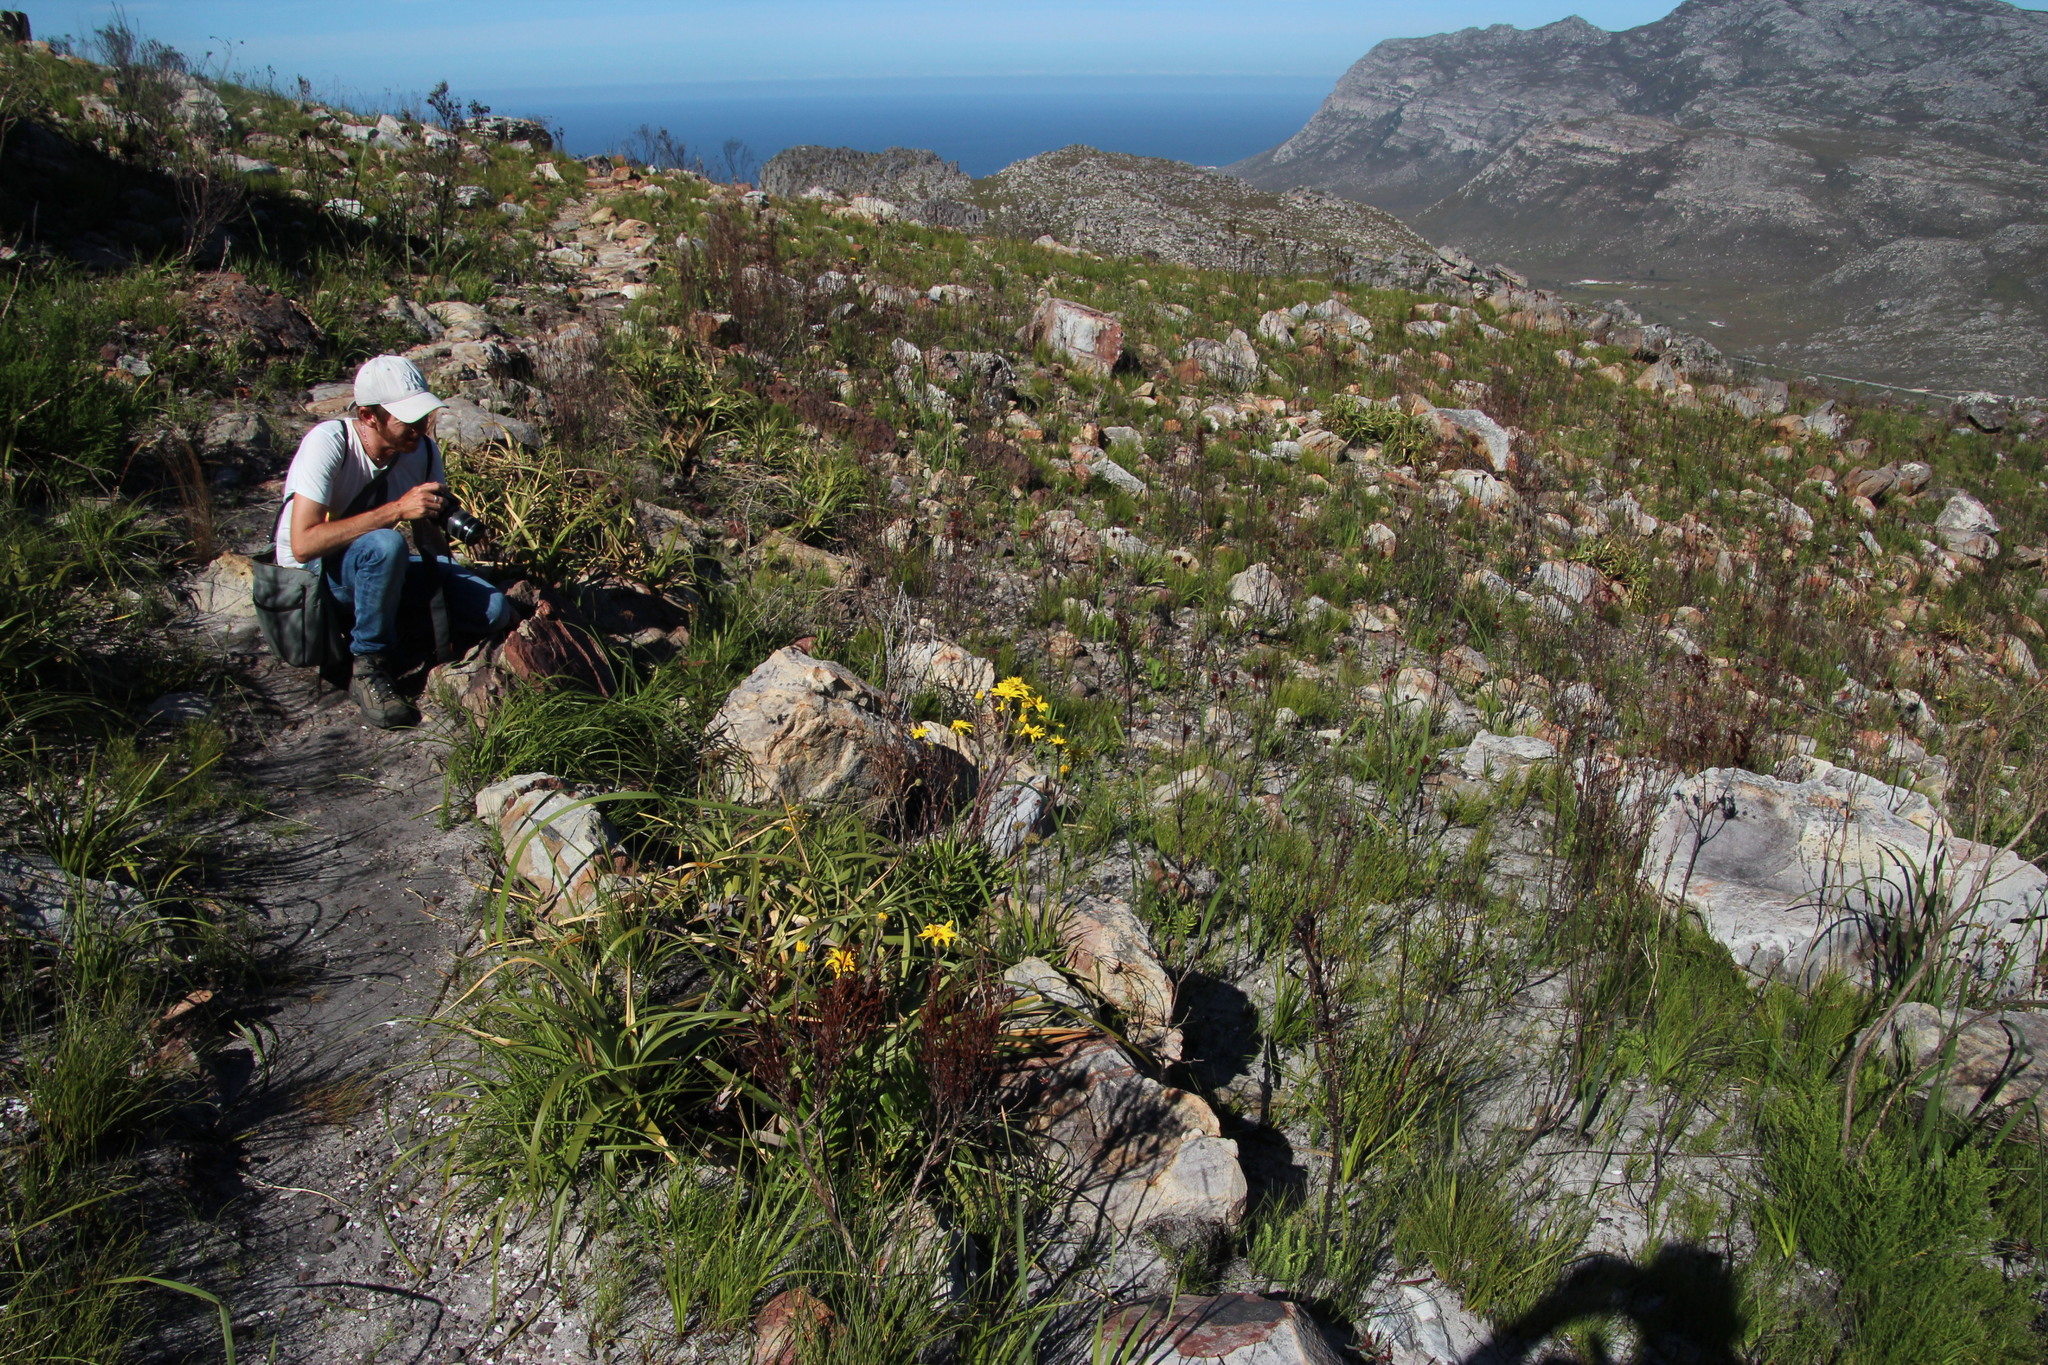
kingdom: Plantae
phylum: Tracheophyta
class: Magnoliopsida
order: Asterales
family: Asteraceae
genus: Capelio
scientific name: Capelio caledonica
